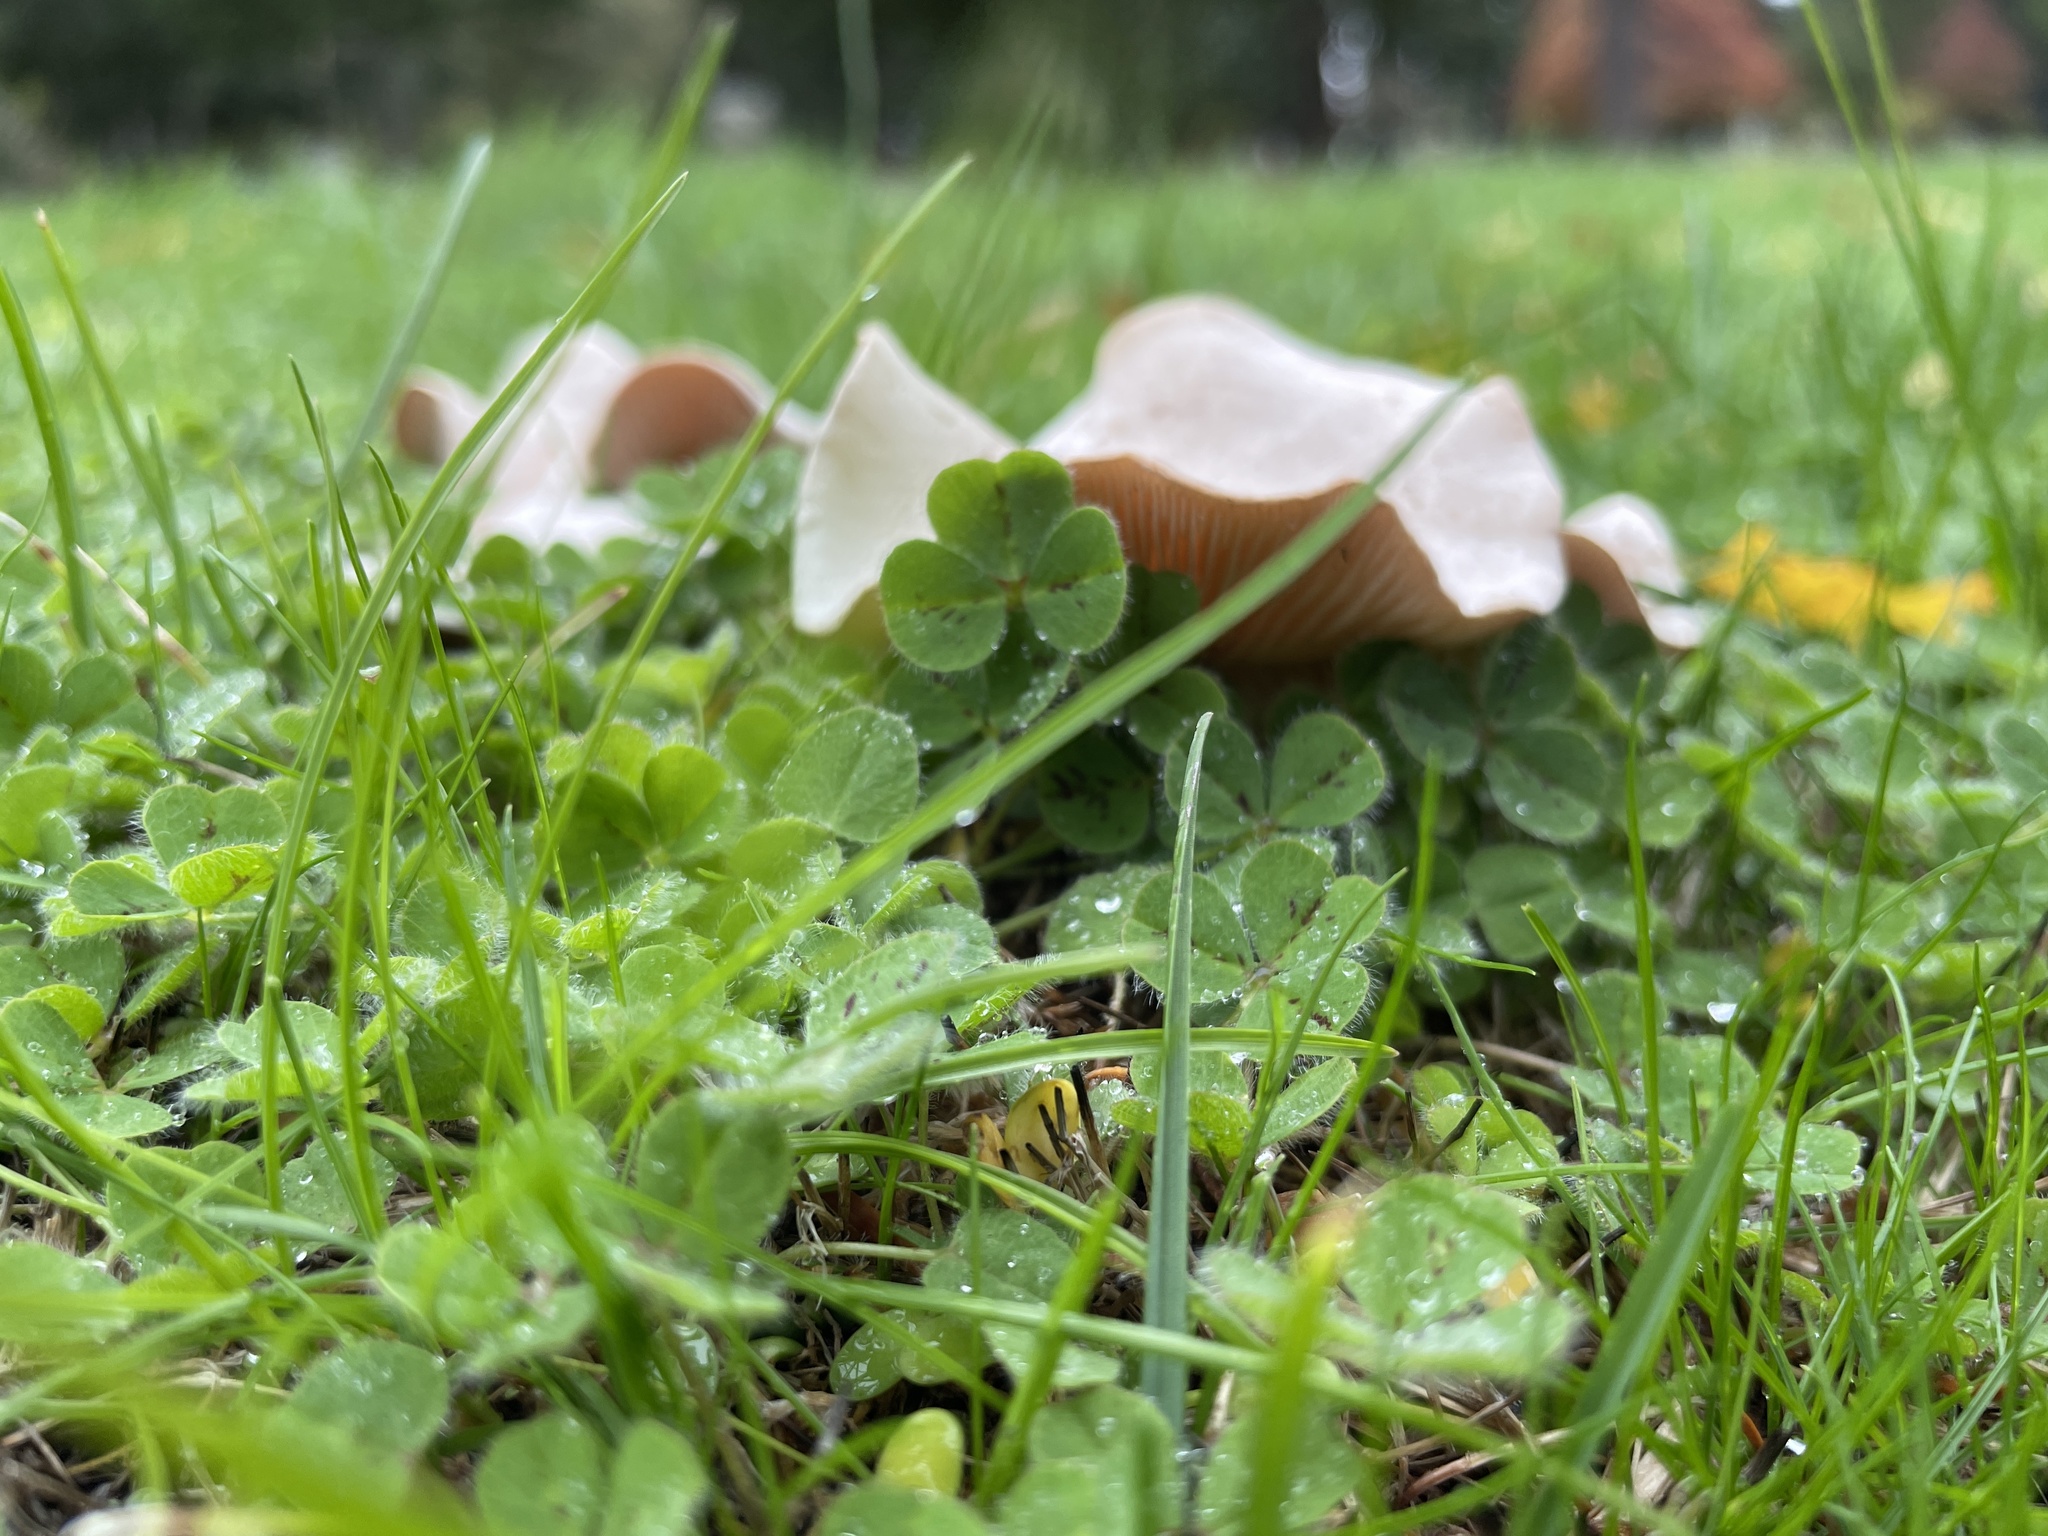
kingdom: Fungi
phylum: Basidiomycota
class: Agaricomycetes
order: Agaricales
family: Tricholomataceae
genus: Collybia
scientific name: Collybia
